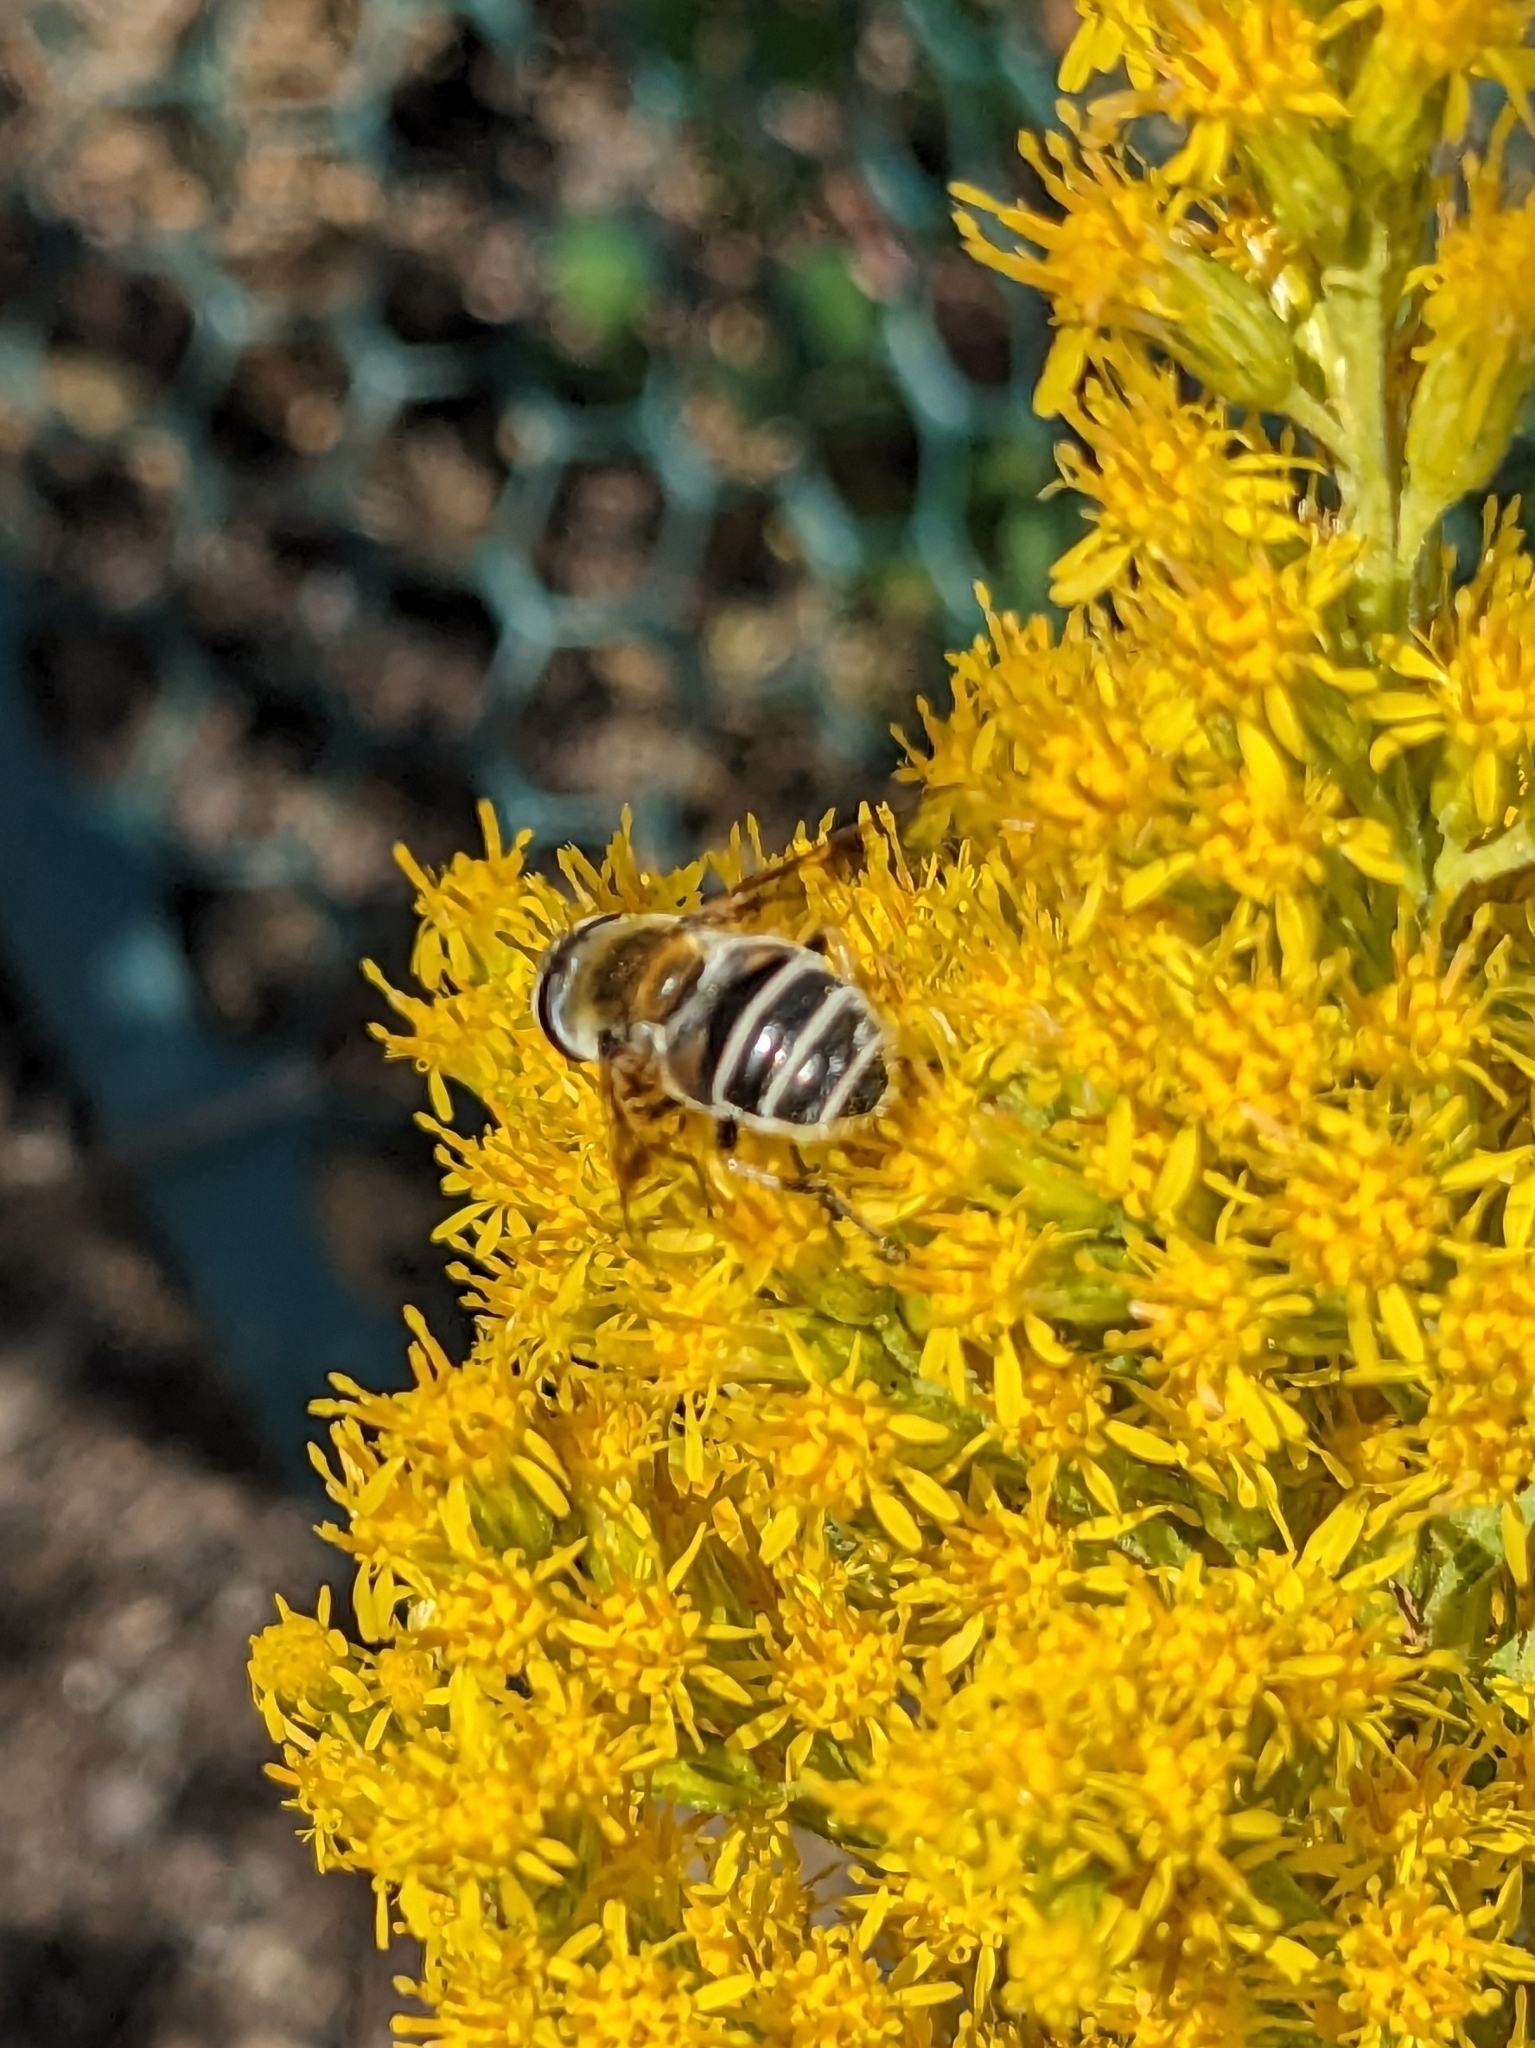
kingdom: Animalia
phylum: Arthropoda
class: Insecta
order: Diptera
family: Syrphidae
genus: Eristalis
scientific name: Eristalis stipator
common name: Yellow-shouldered drone fly
